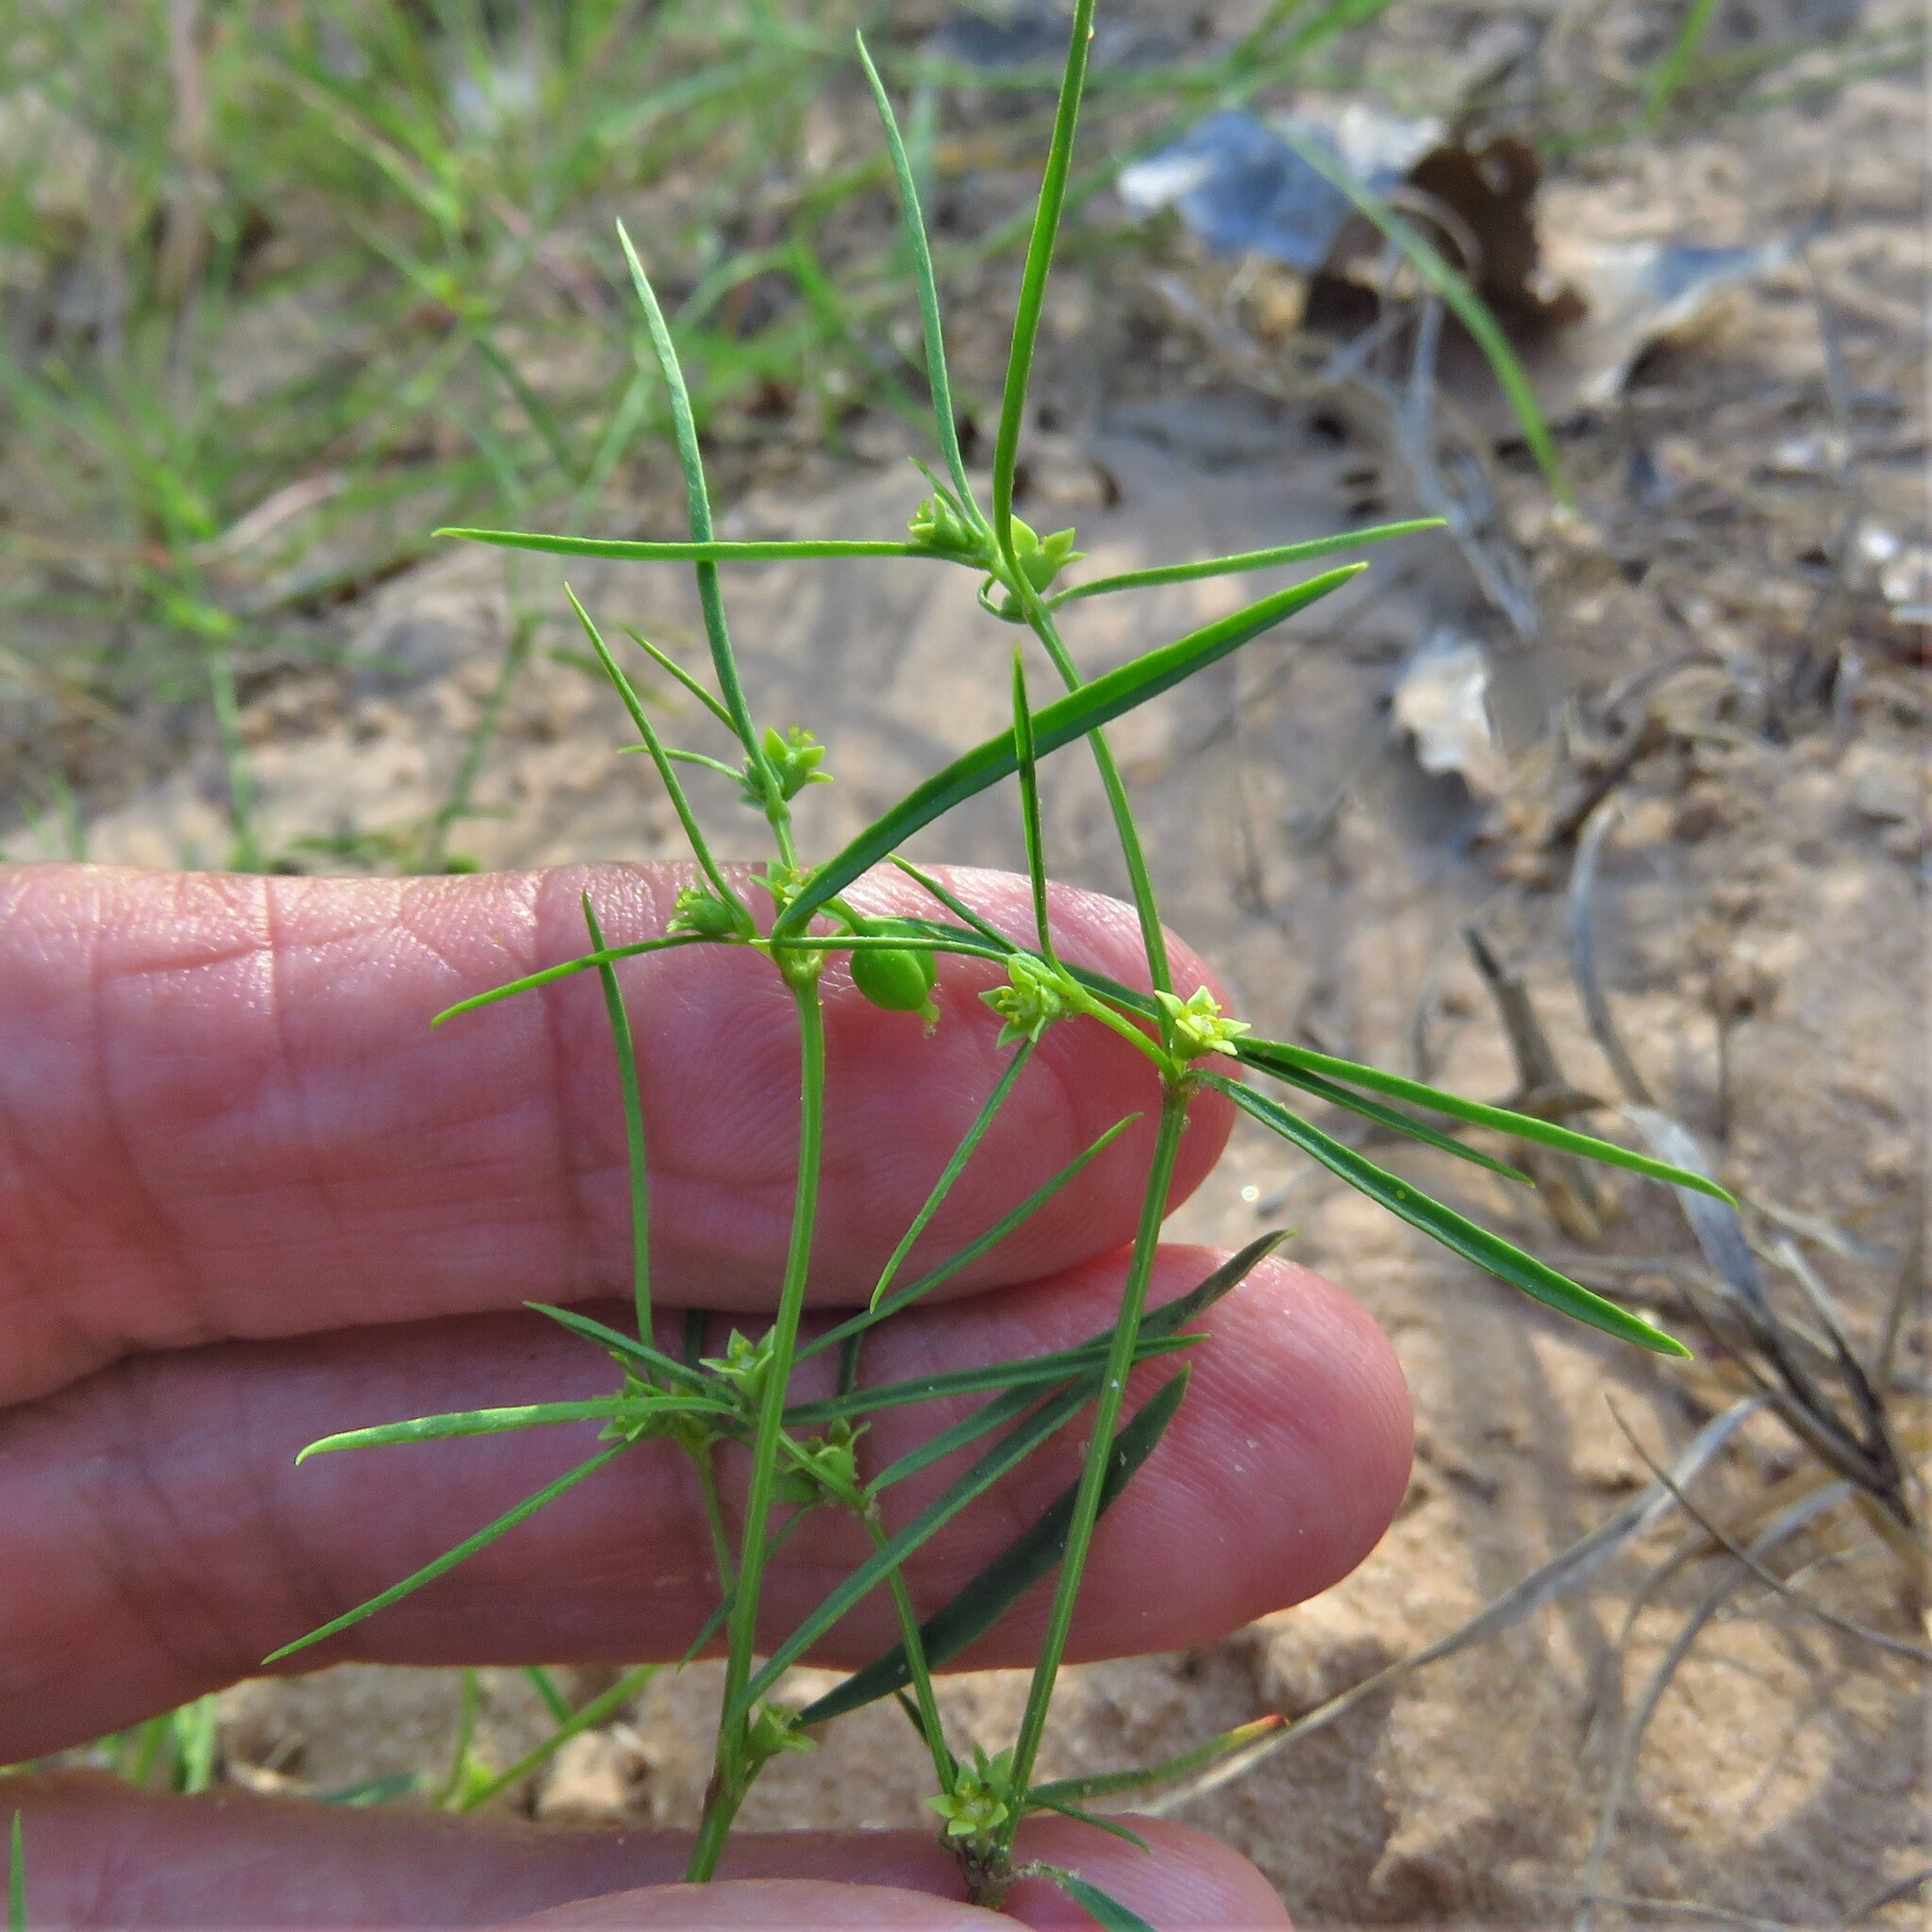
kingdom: Plantae
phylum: Tracheophyta
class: Magnoliopsida
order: Malpighiales
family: Euphorbiaceae
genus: Euphorbia
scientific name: Euphorbia hexagona
